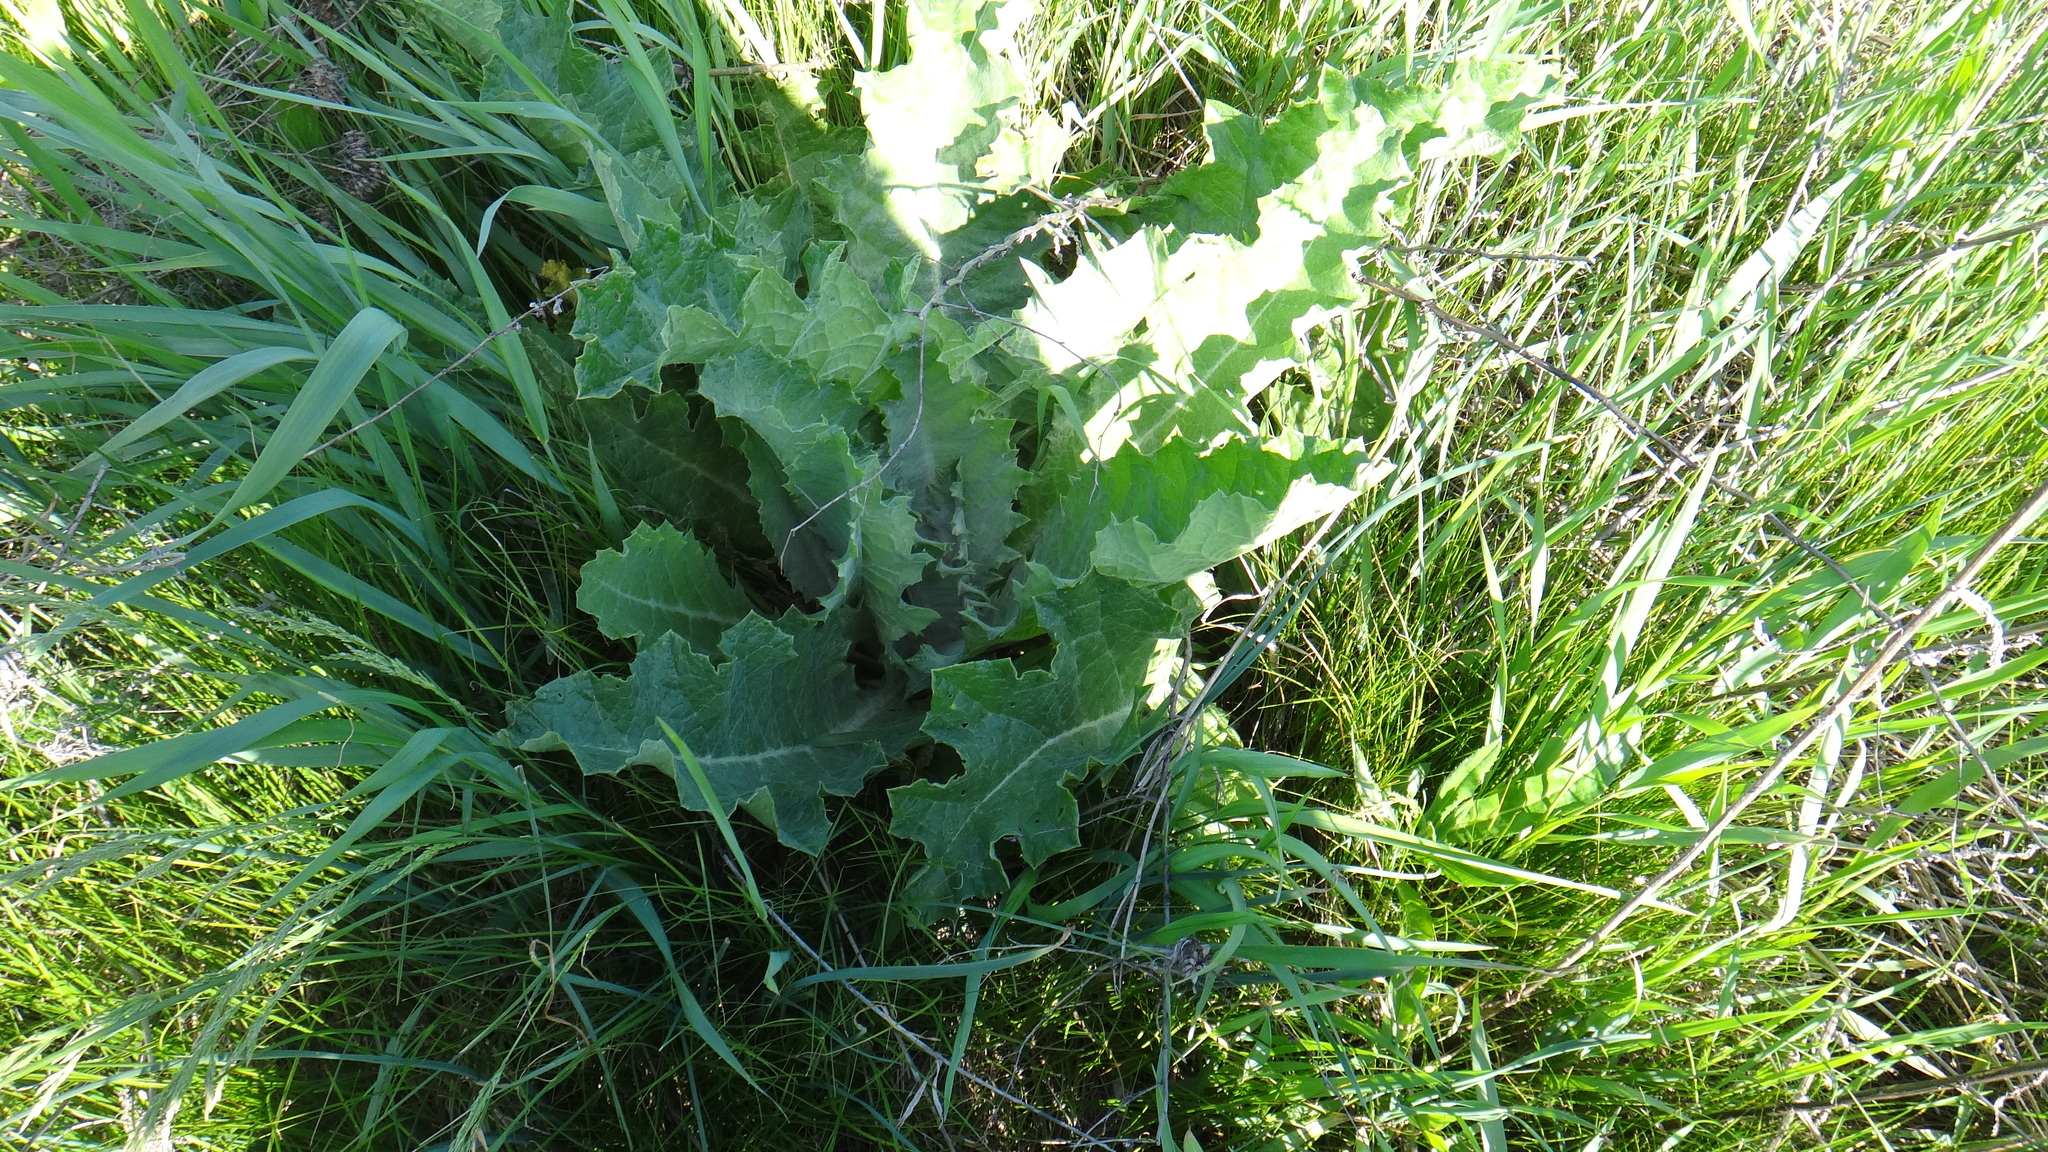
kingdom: Plantae
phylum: Tracheophyta
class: Magnoliopsida
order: Asterales
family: Asteraceae
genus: Onopordum
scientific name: Onopordum acanthium
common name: Scotch thistle
